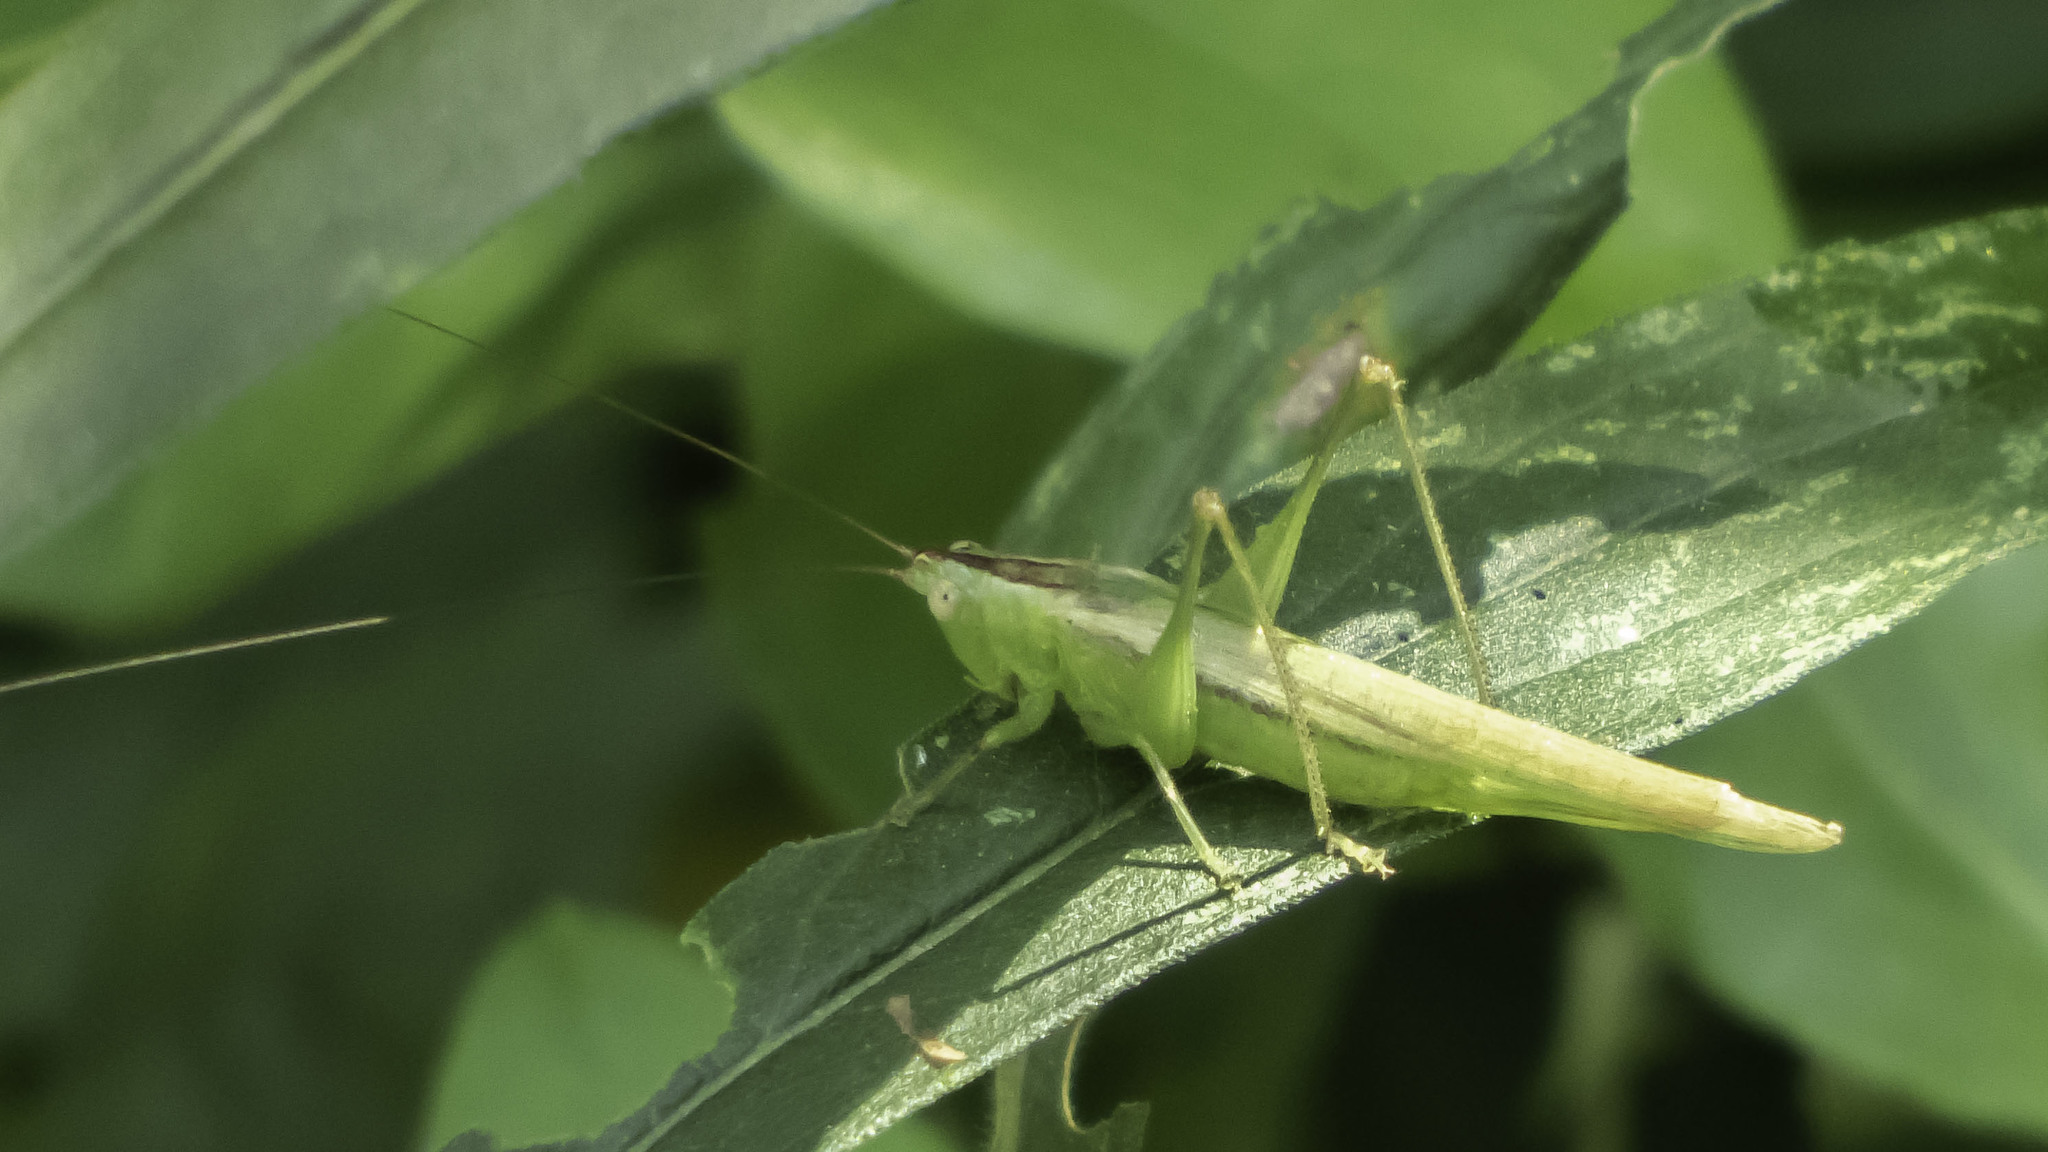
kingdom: Animalia
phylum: Arthropoda
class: Insecta
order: Orthoptera
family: Tettigoniidae
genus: Conocephalus
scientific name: Conocephalus fasciatus
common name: Slender meadow katydid
